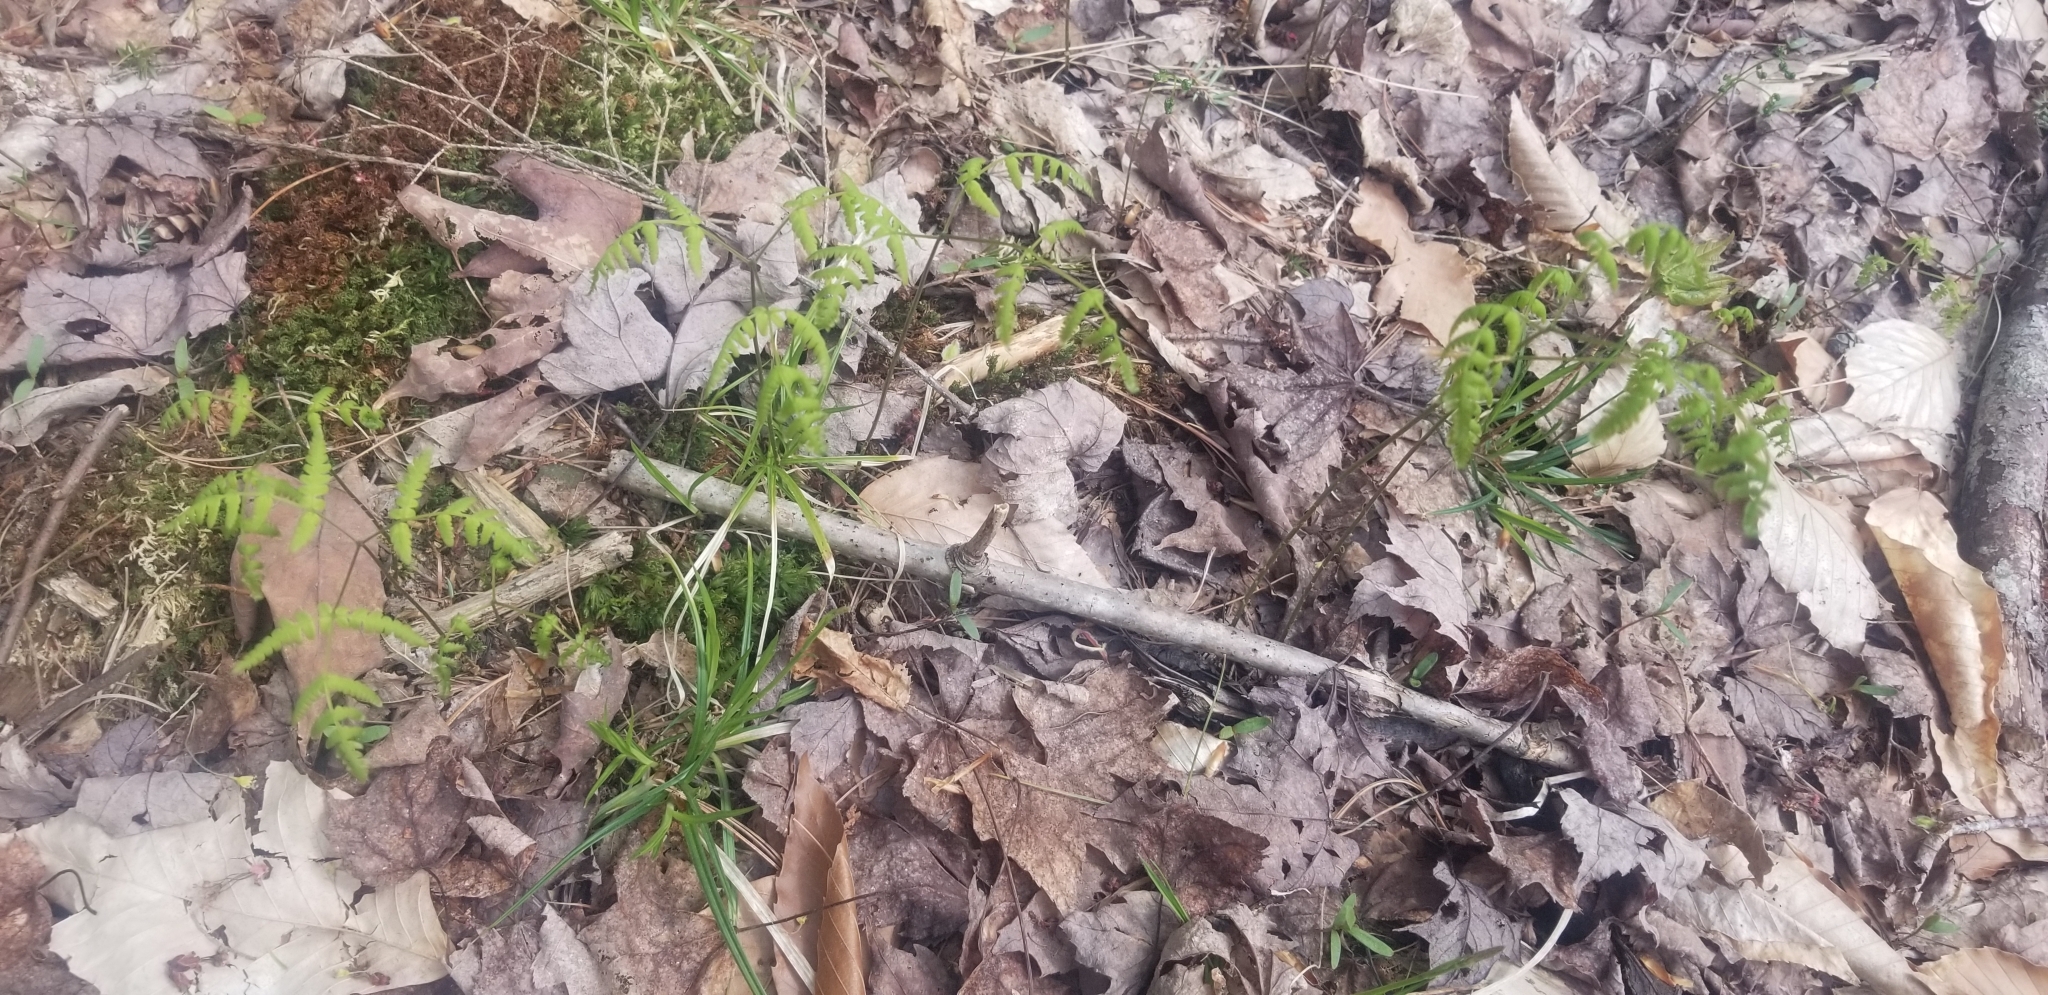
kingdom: Plantae
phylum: Tracheophyta
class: Polypodiopsida
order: Polypodiales
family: Cystopteridaceae
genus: Gymnocarpium
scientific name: Gymnocarpium dryopteris
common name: Oak fern
